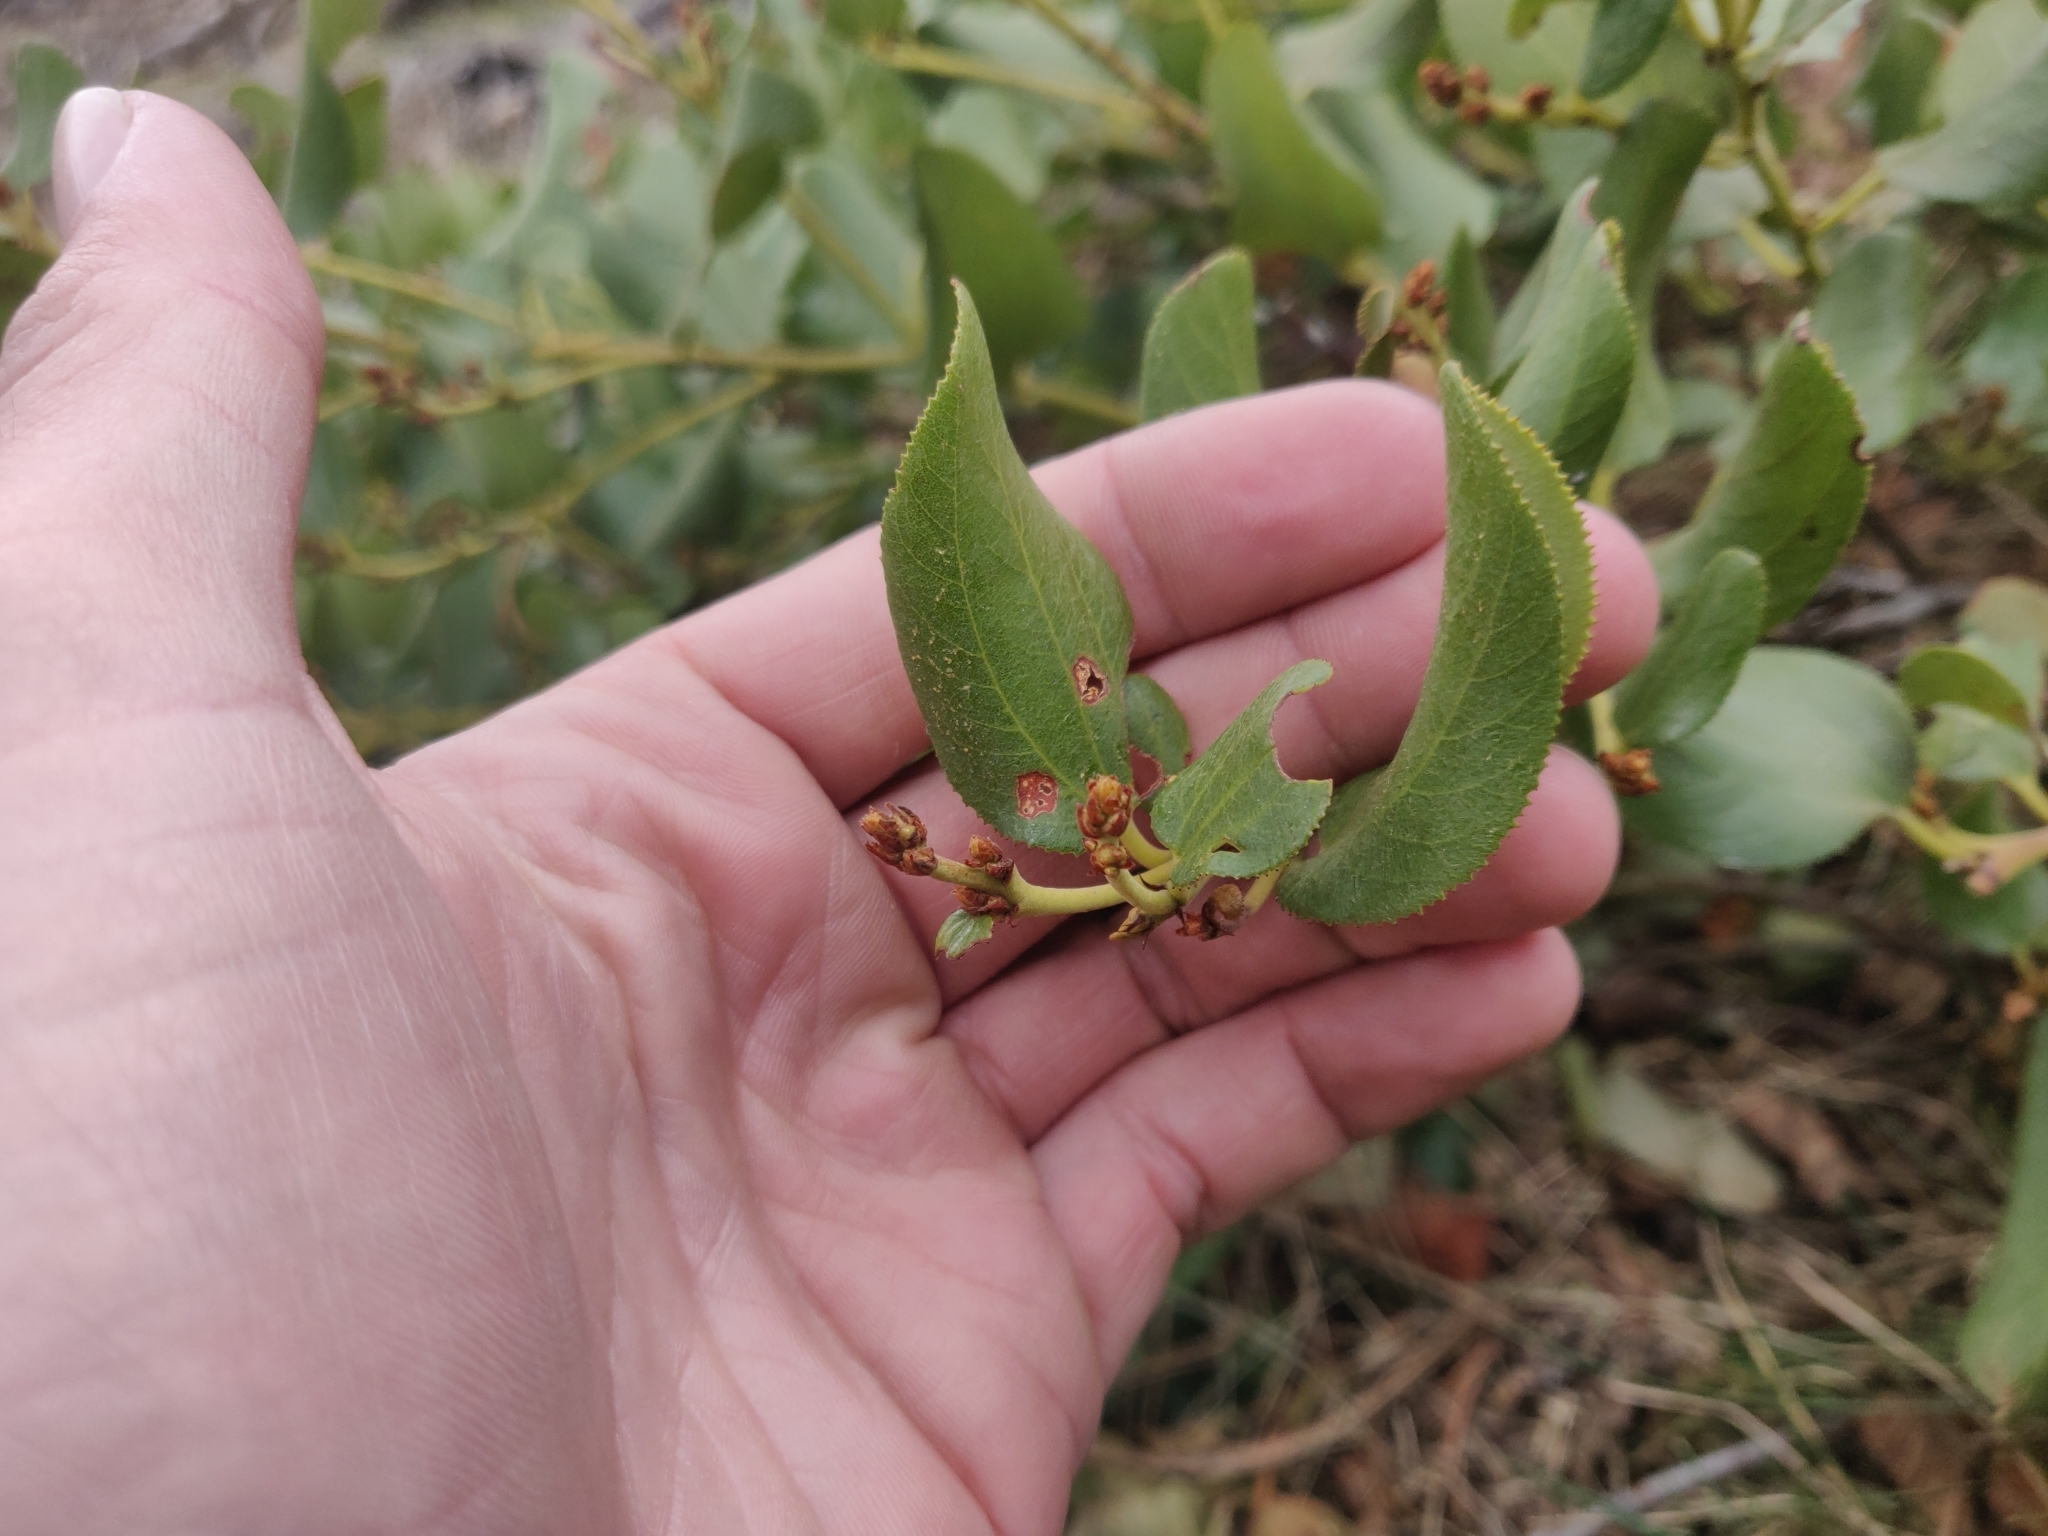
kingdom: Plantae
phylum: Tracheophyta
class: Magnoliopsida
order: Rosales
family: Rhamnaceae
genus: Ceanothus
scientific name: Ceanothus velutinus
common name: Snowbrush
